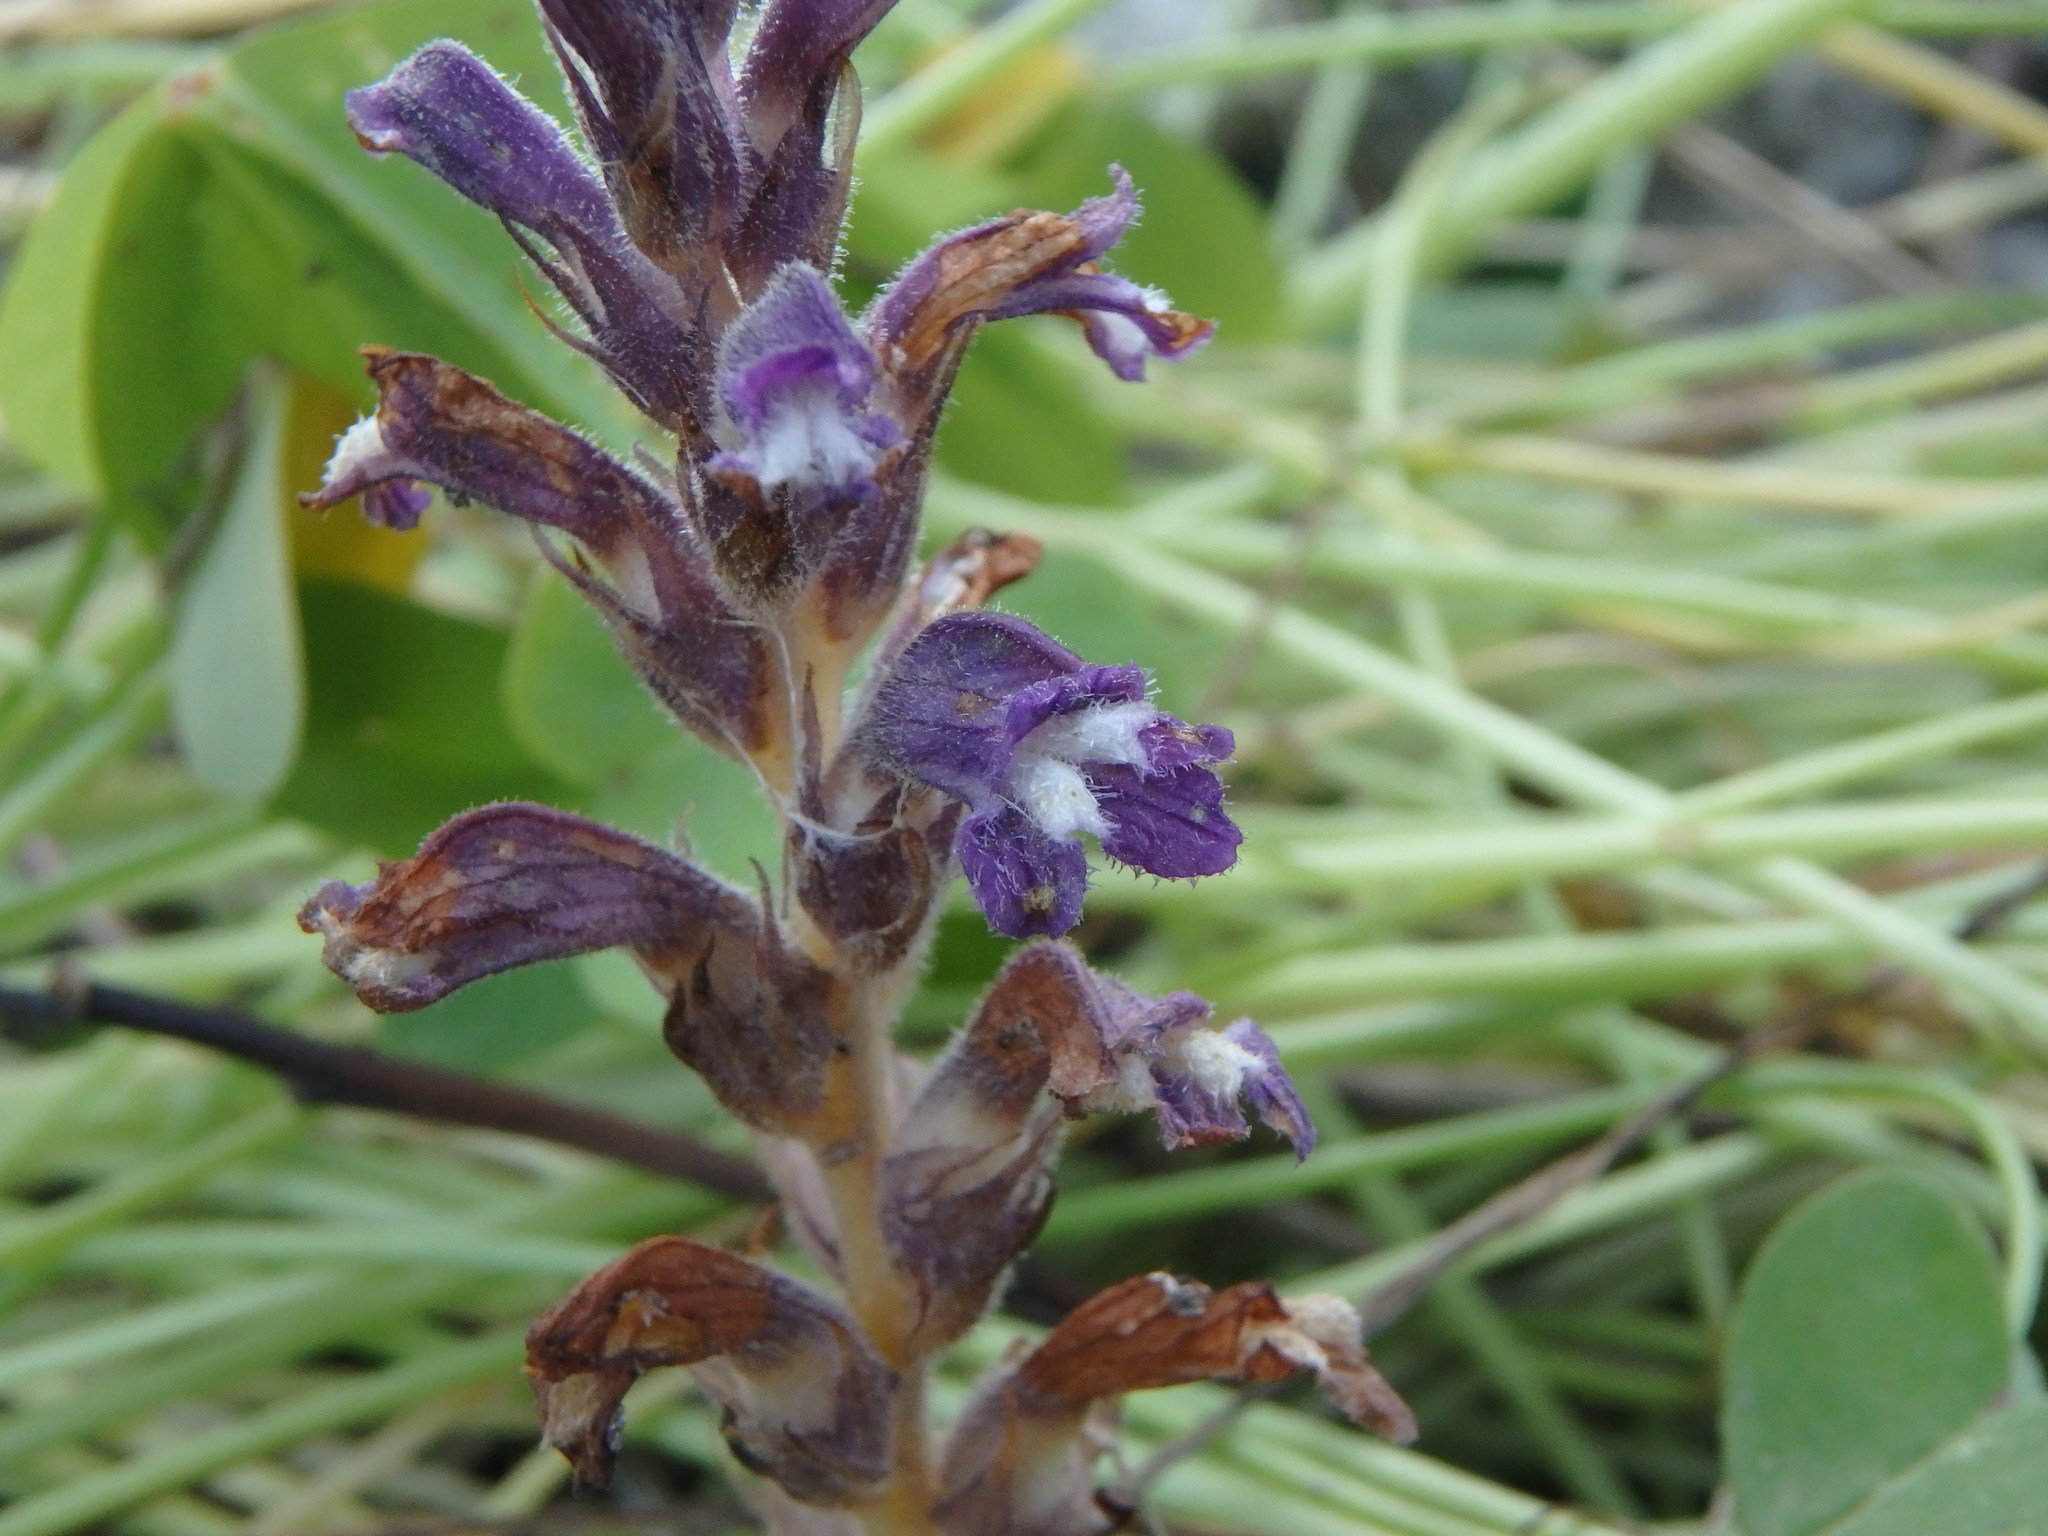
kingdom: Plantae
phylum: Tracheophyta
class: Magnoliopsida
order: Lamiales
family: Orobanchaceae
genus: Phelipanche
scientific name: Phelipanche mutelii
